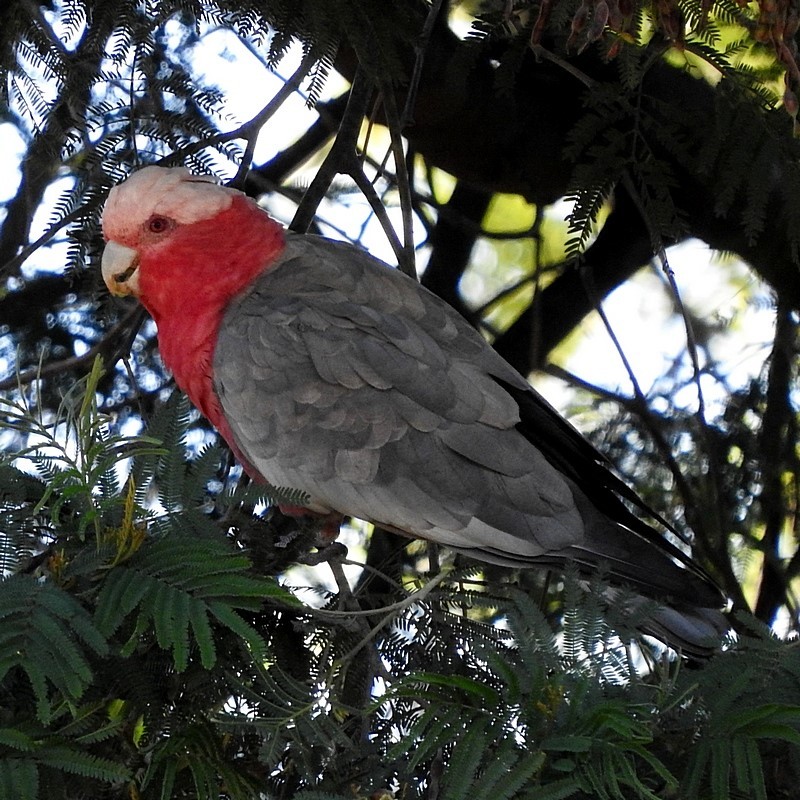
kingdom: Animalia
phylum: Chordata
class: Aves
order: Psittaciformes
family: Psittacidae
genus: Eolophus
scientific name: Eolophus roseicapilla
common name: Galah
